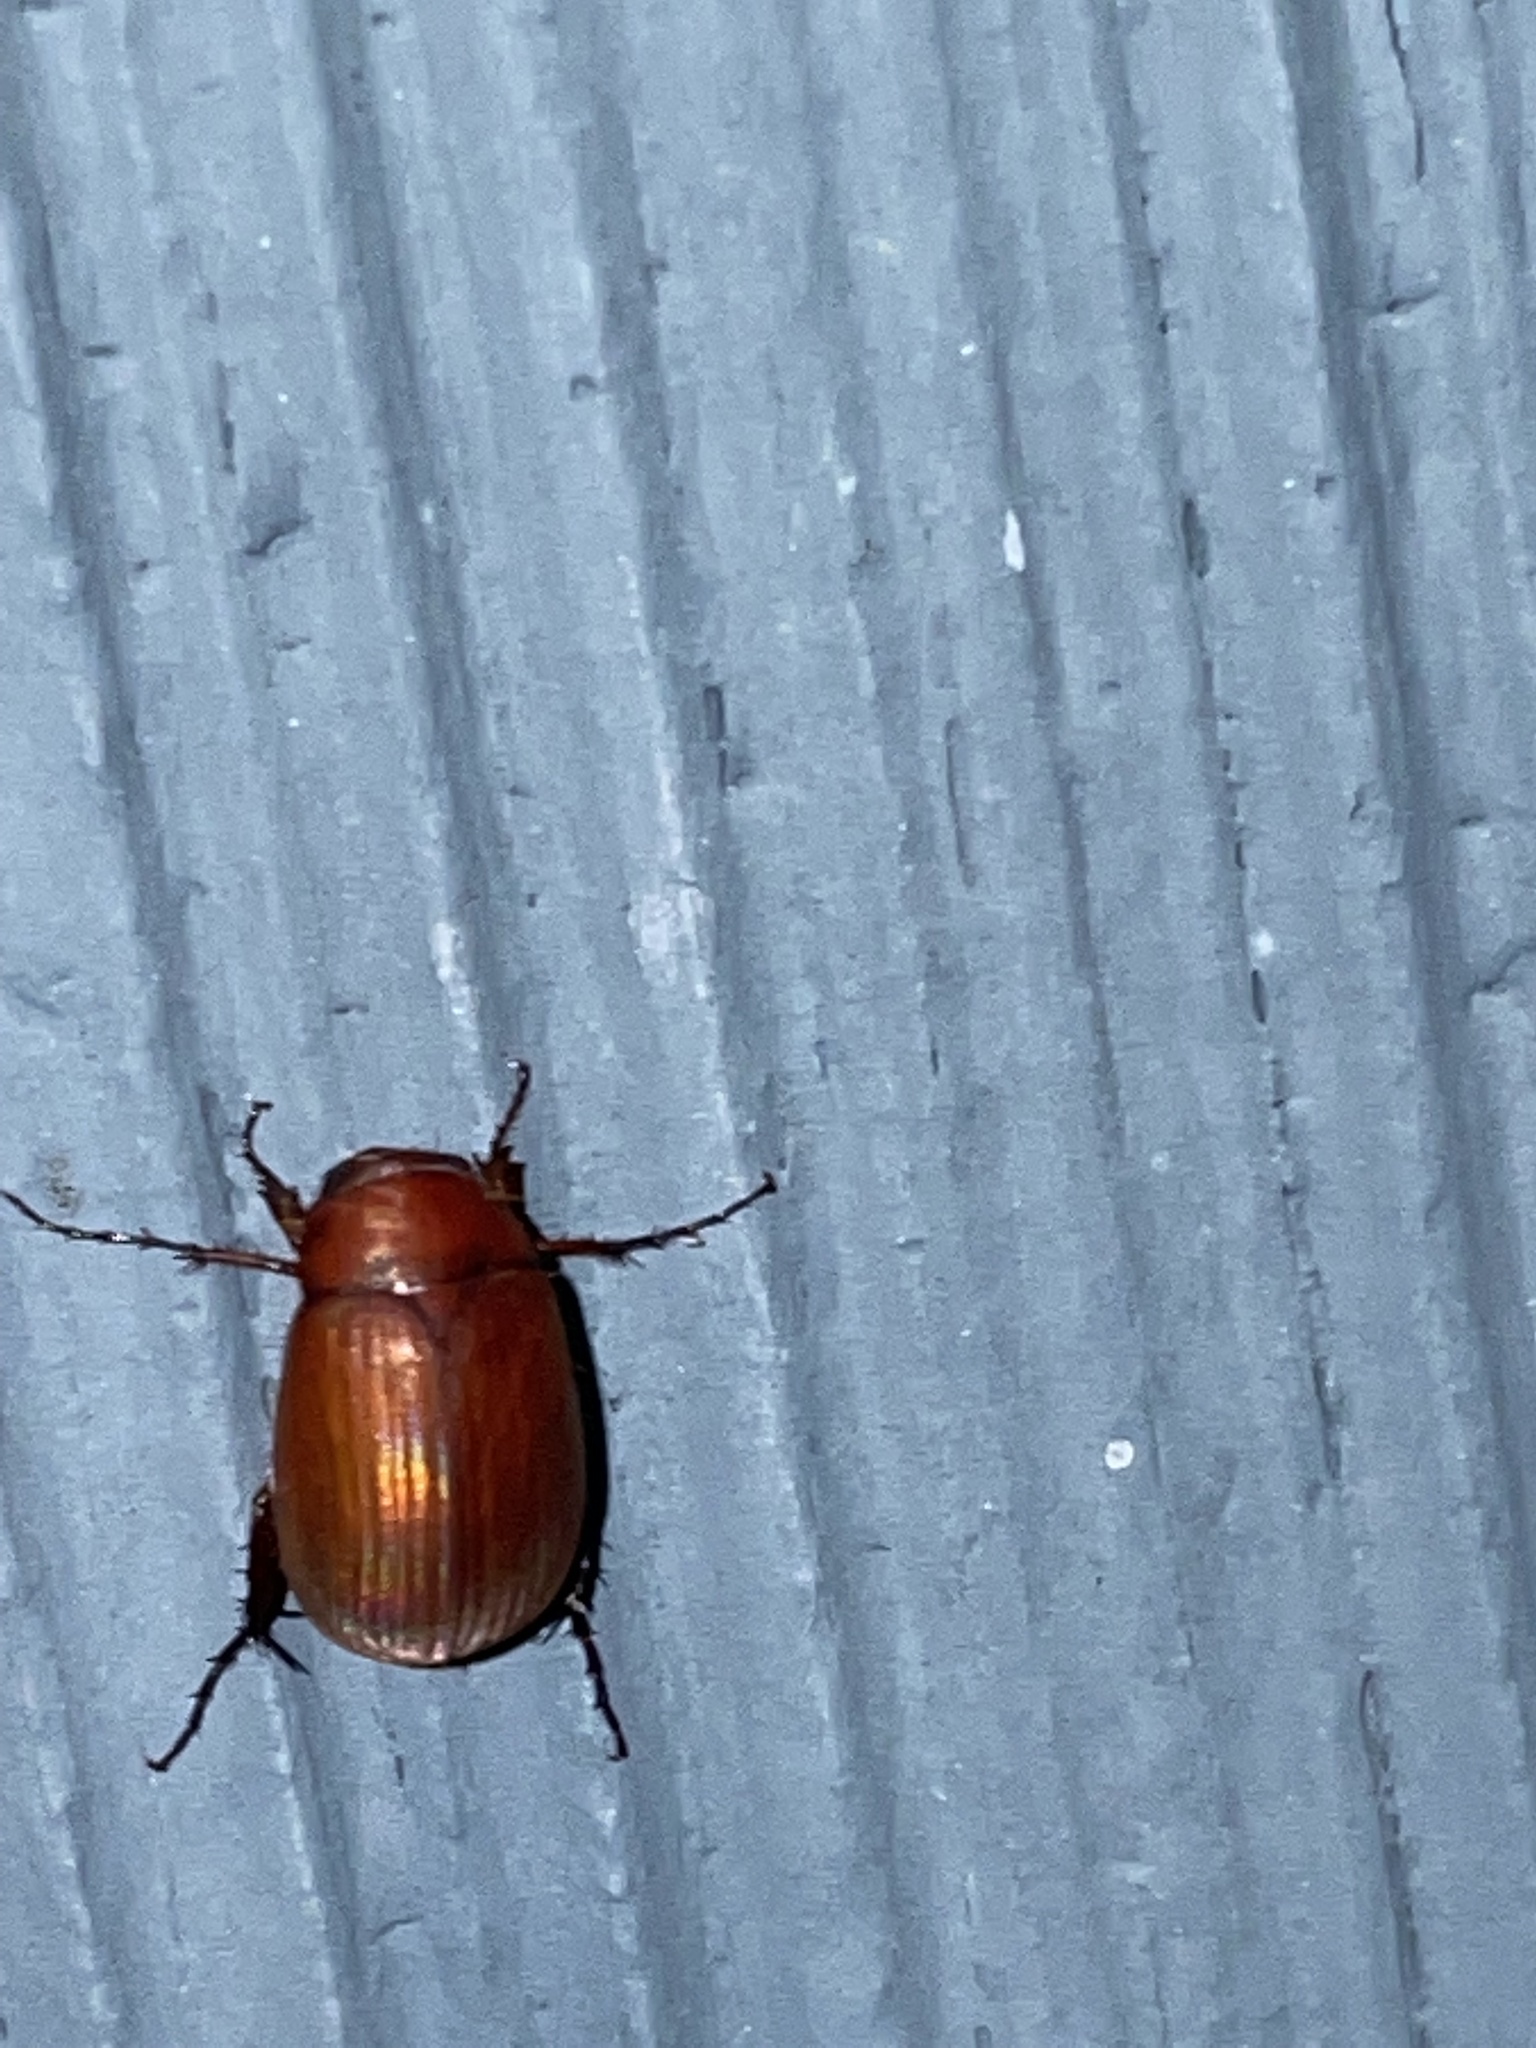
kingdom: Animalia
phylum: Arthropoda
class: Insecta
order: Coleoptera
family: Scarabaeidae
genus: Maladera
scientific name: Maladera formosae
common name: Asiatic garden beetle
